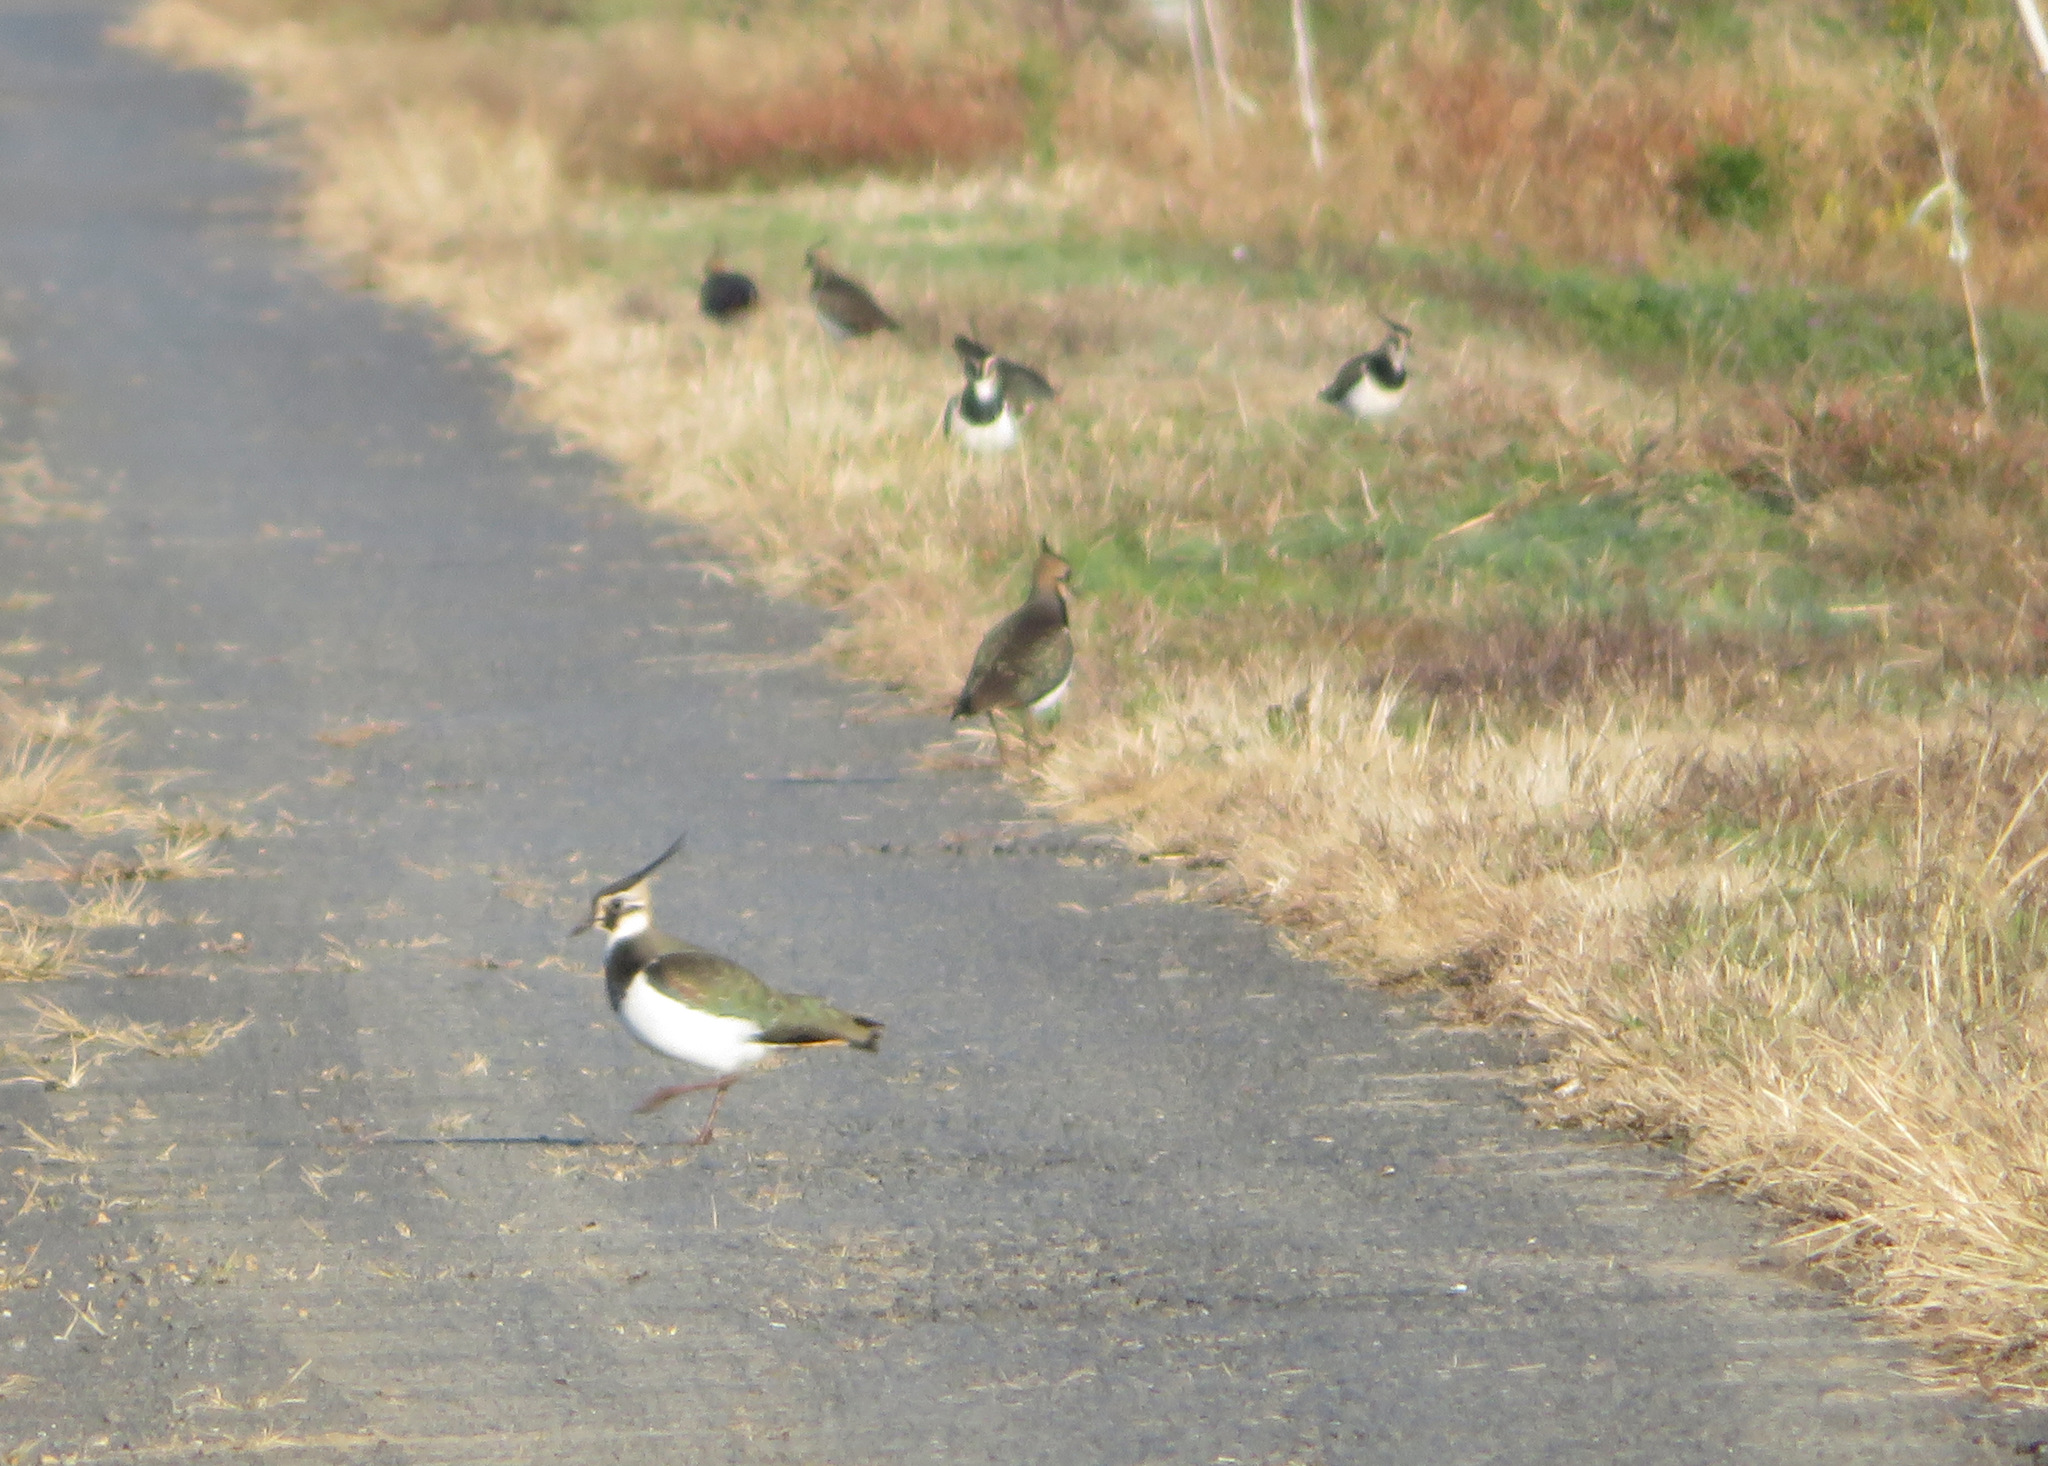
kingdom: Animalia
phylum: Chordata
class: Aves
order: Charadriiformes
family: Charadriidae
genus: Vanellus
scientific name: Vanellus vanellus
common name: Northern lapwing
